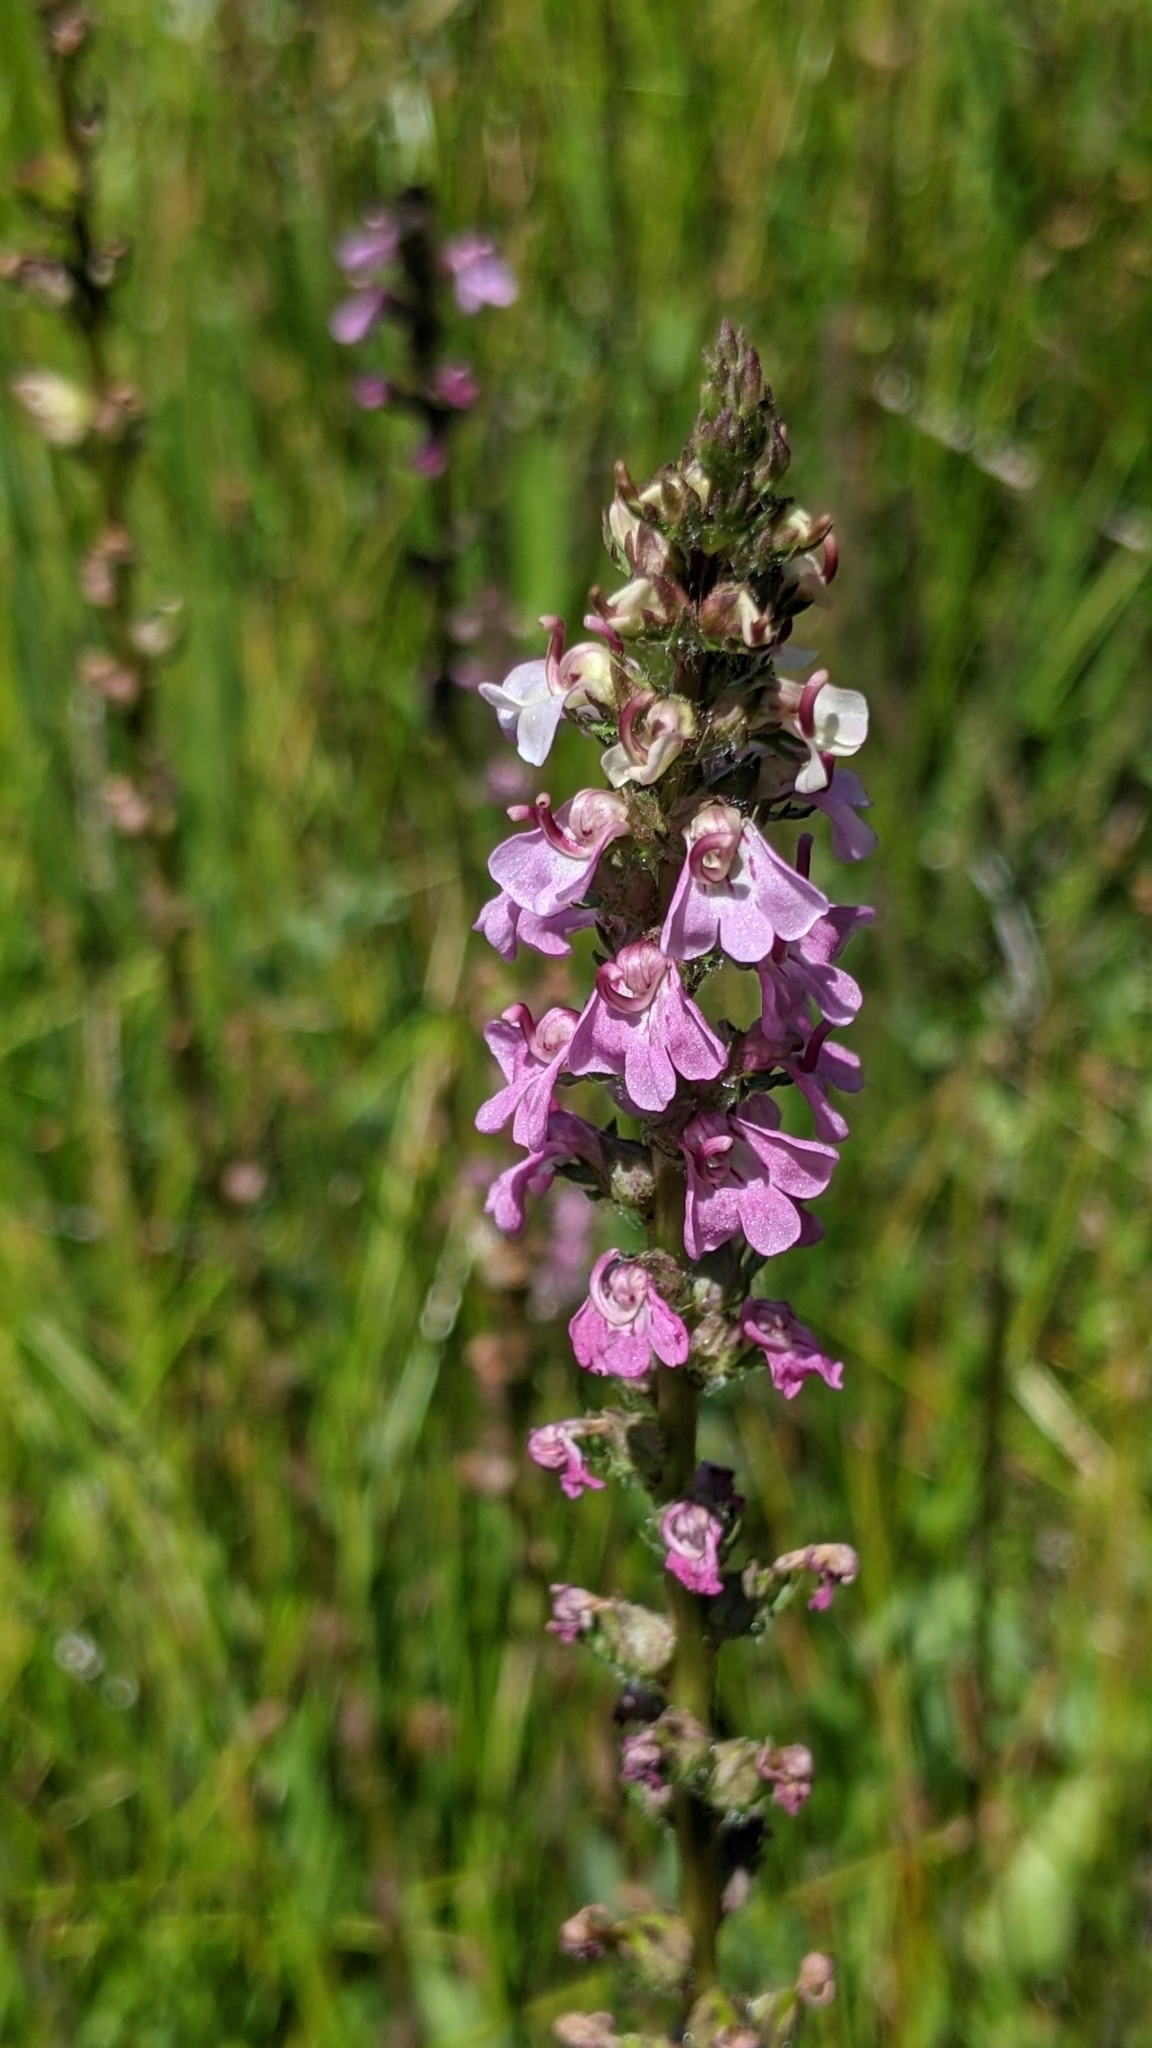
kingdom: Plantae
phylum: Tracheophyta
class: Magnoliopsida
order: Lamiales
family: Orobanchaceae
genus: Pedicularis
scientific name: Pedicularis attollens
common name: Slender pedicularis
